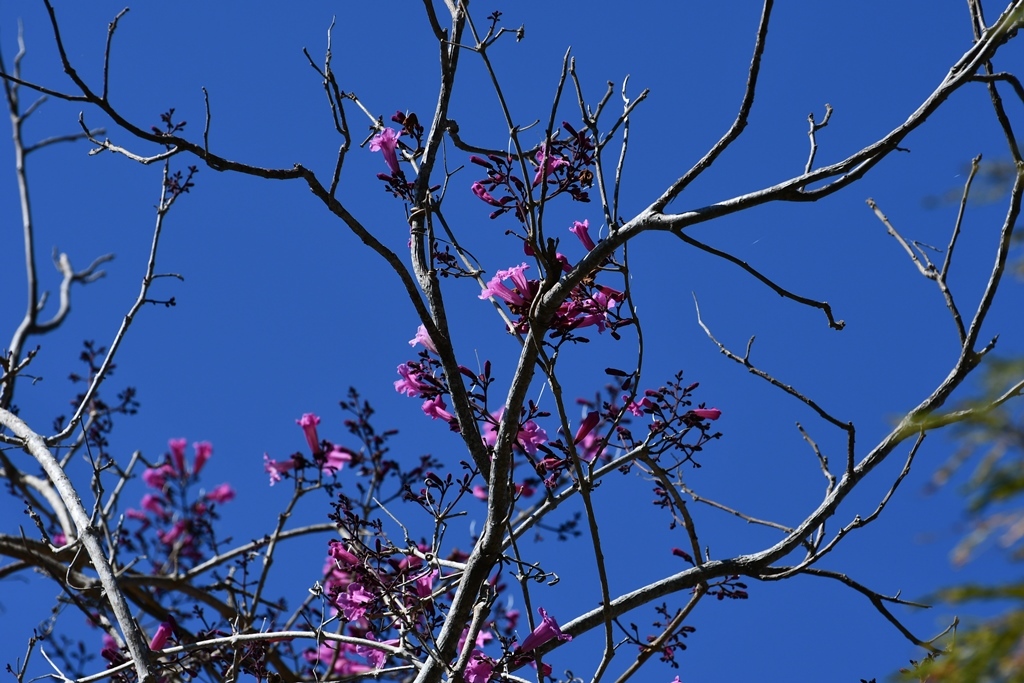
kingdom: Plantae
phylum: Tracheophyta
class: Magnoliopsida
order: Lamiales
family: Bignoniaceae
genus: Fridericia
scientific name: Fridericia chica
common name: Cricketvine
